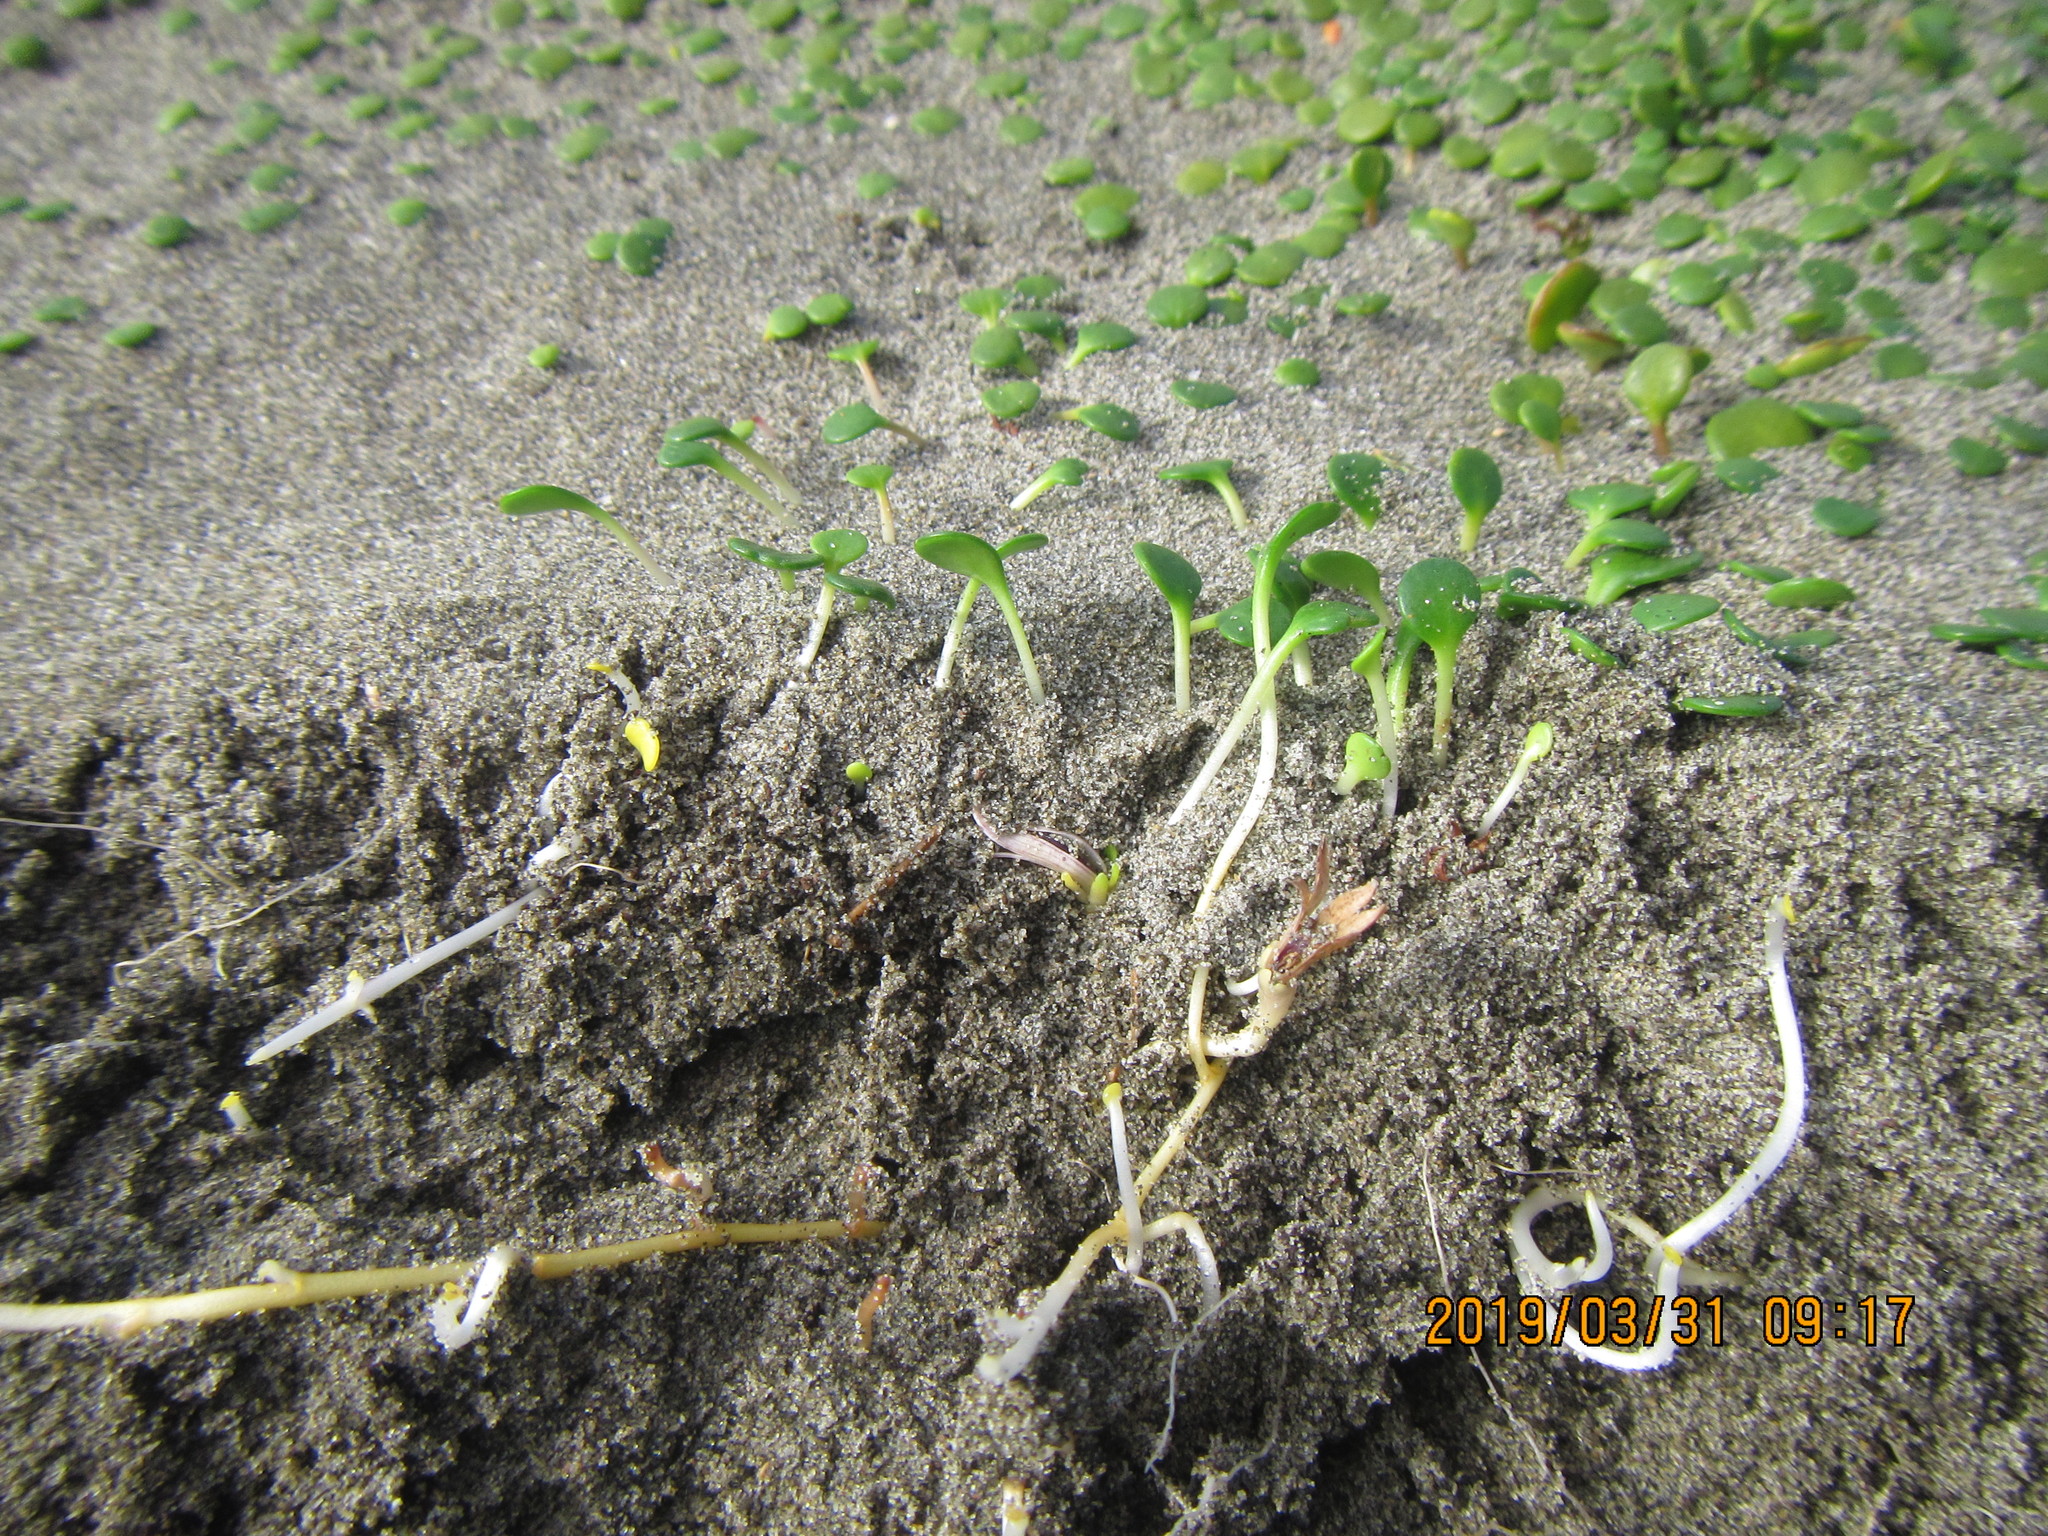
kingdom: Plantae
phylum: Tracheophyta
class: Magnoliopsida
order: Asterales
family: Goodeniaceae
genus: Goodenia
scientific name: Goodenia heenanii
